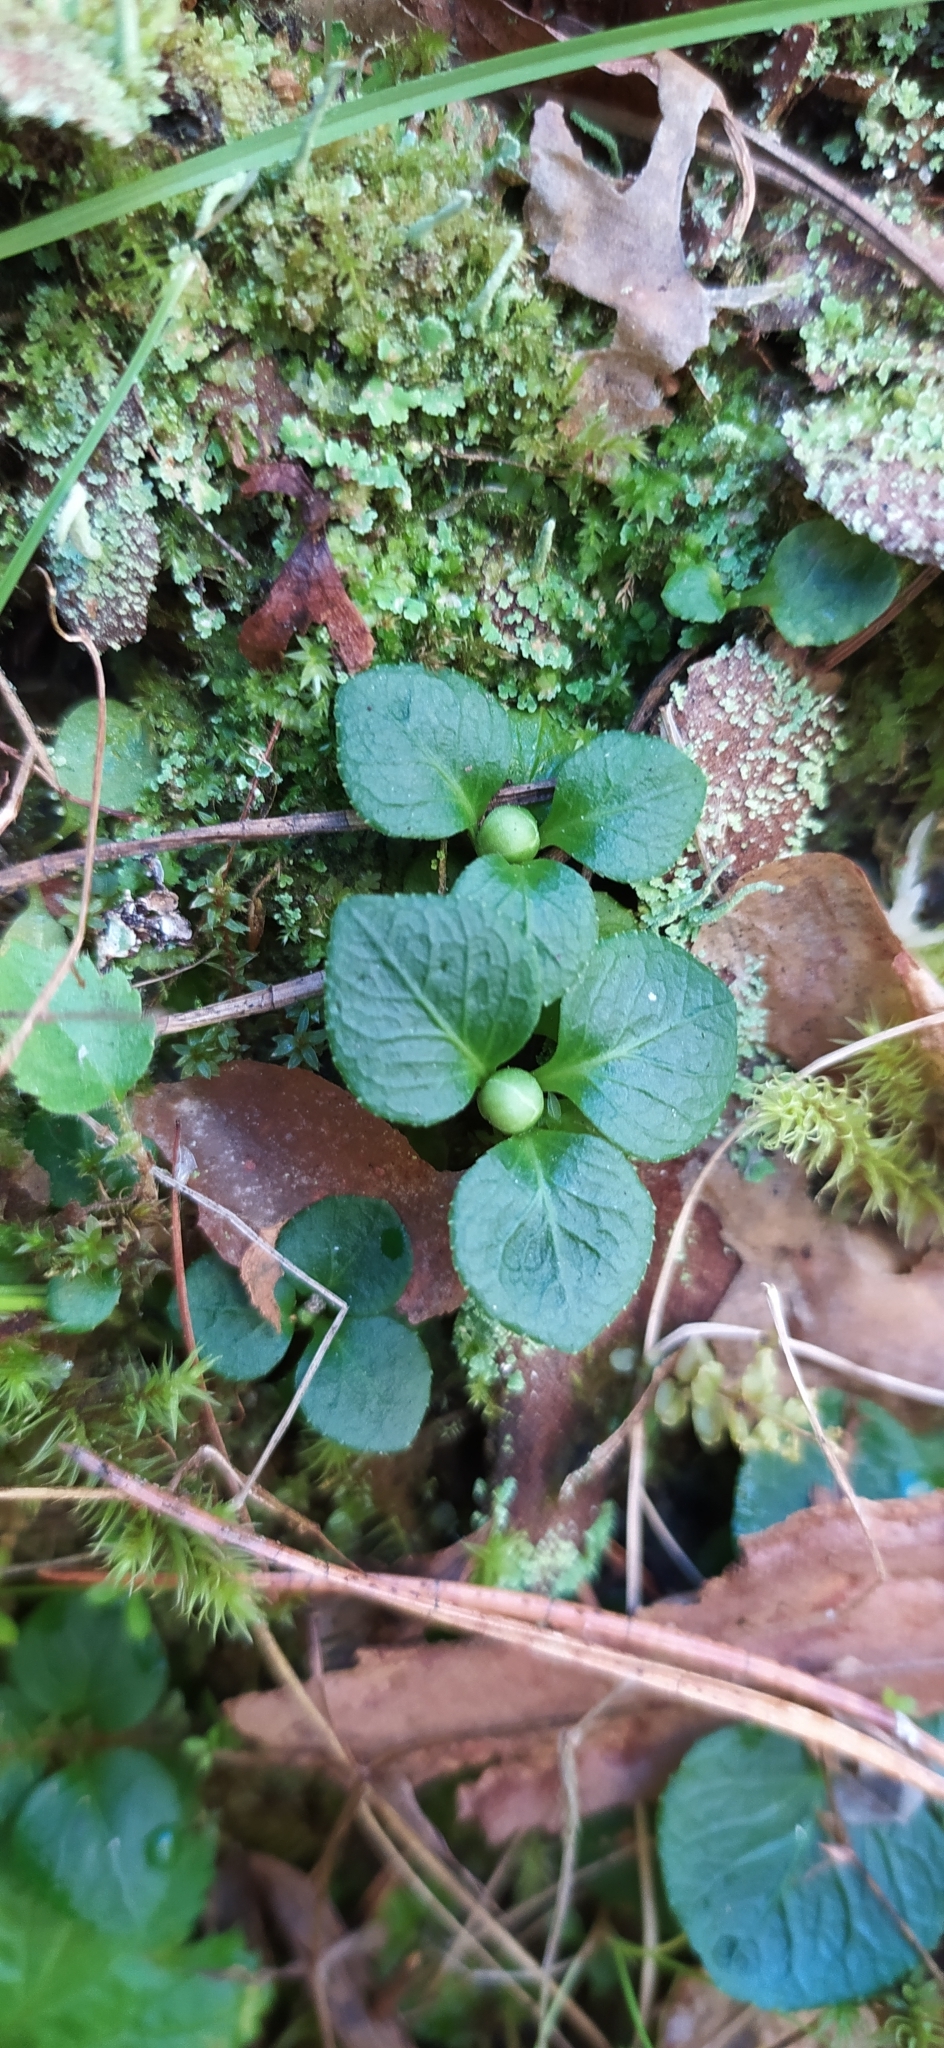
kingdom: Plantae
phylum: Tracheophyta
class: Magnoliopsida
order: Ericales
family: Ericaceae
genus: Moneses
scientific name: Moneses uniflora
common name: One-flowered wintergreen
